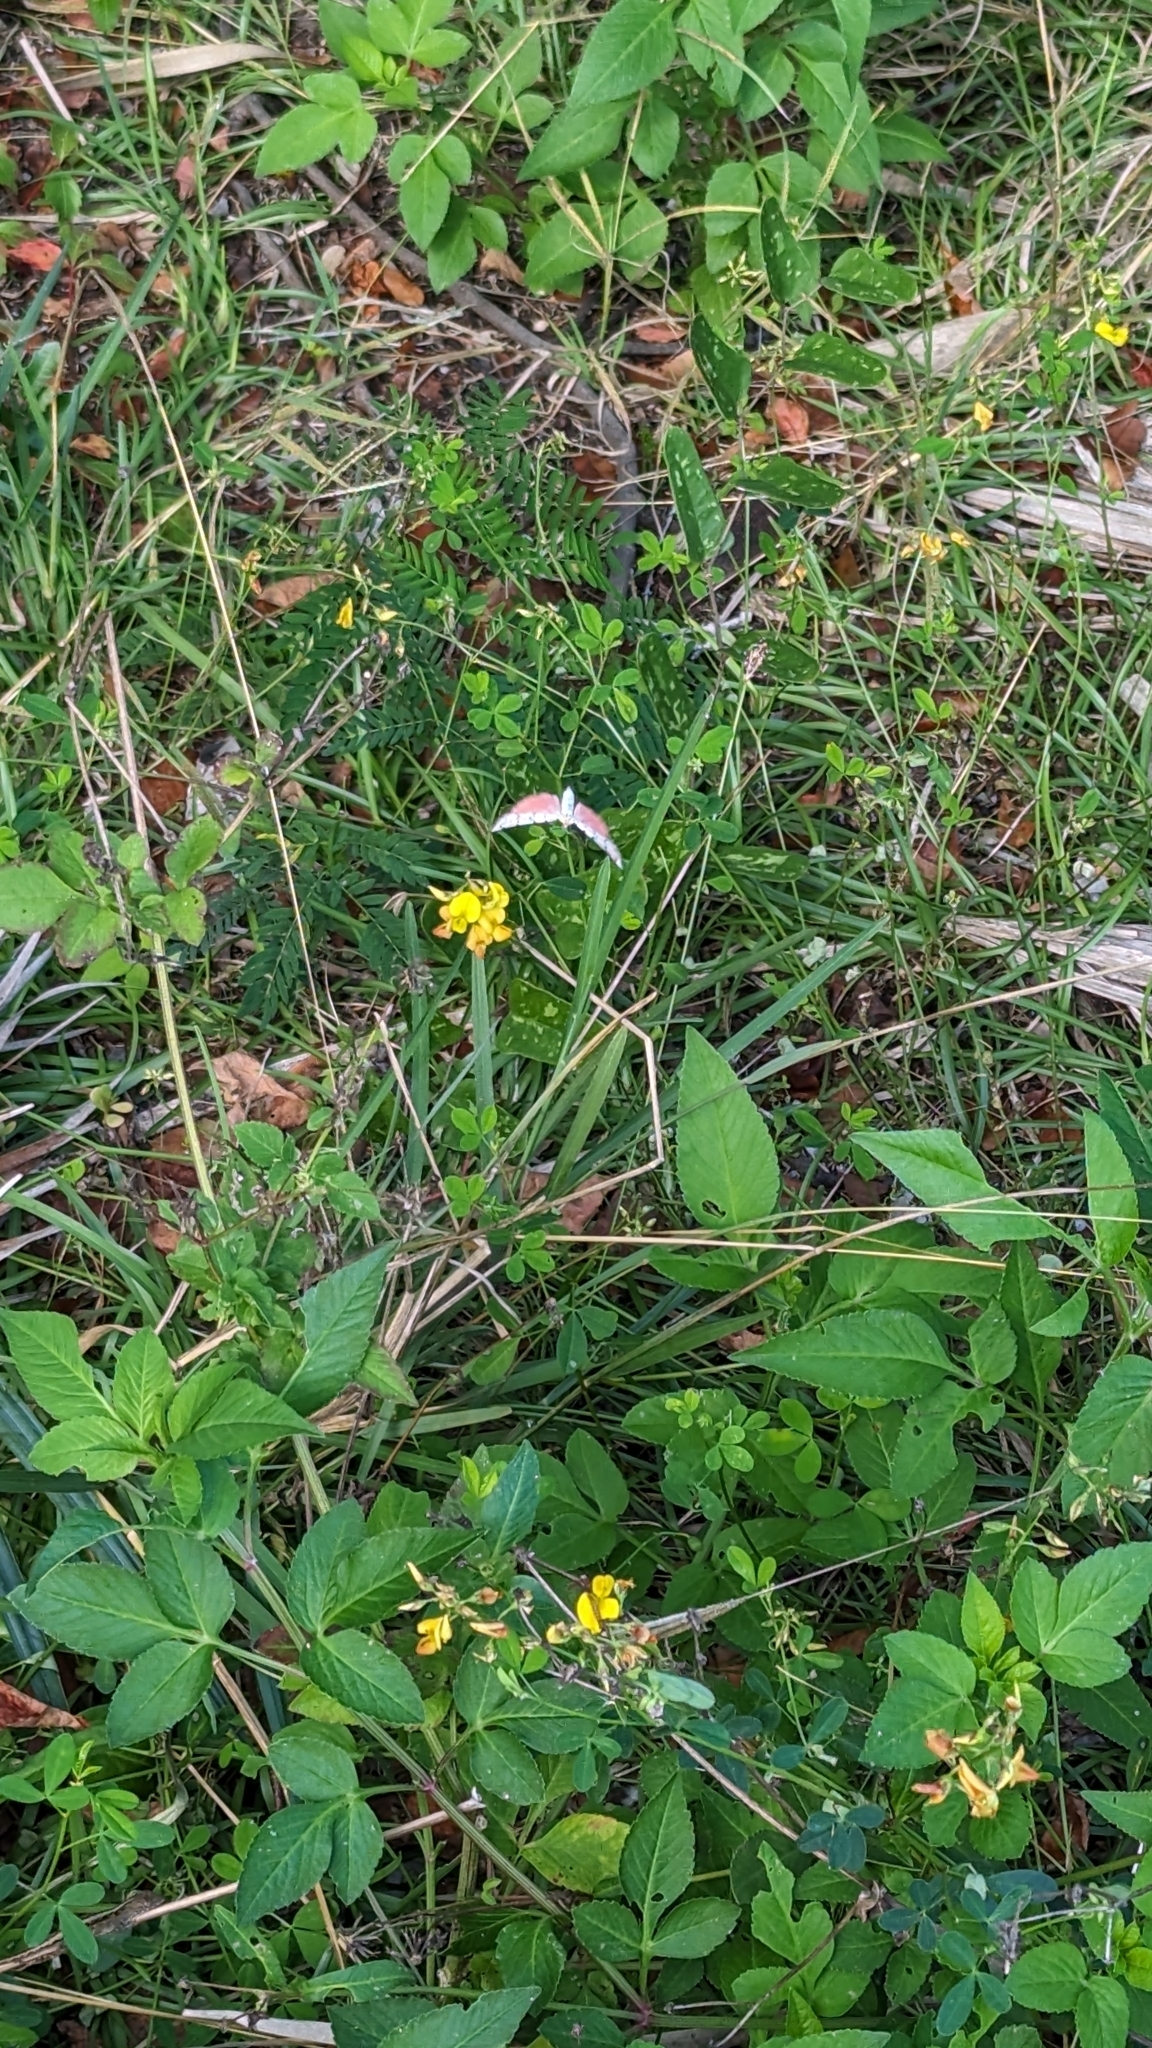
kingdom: Animalia
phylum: Arthropoda
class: Insecta
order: Lepidoptera
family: Erebidae
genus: Utetheisa
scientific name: Utetheisa ornatrix
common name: Beautiful utetheisa
